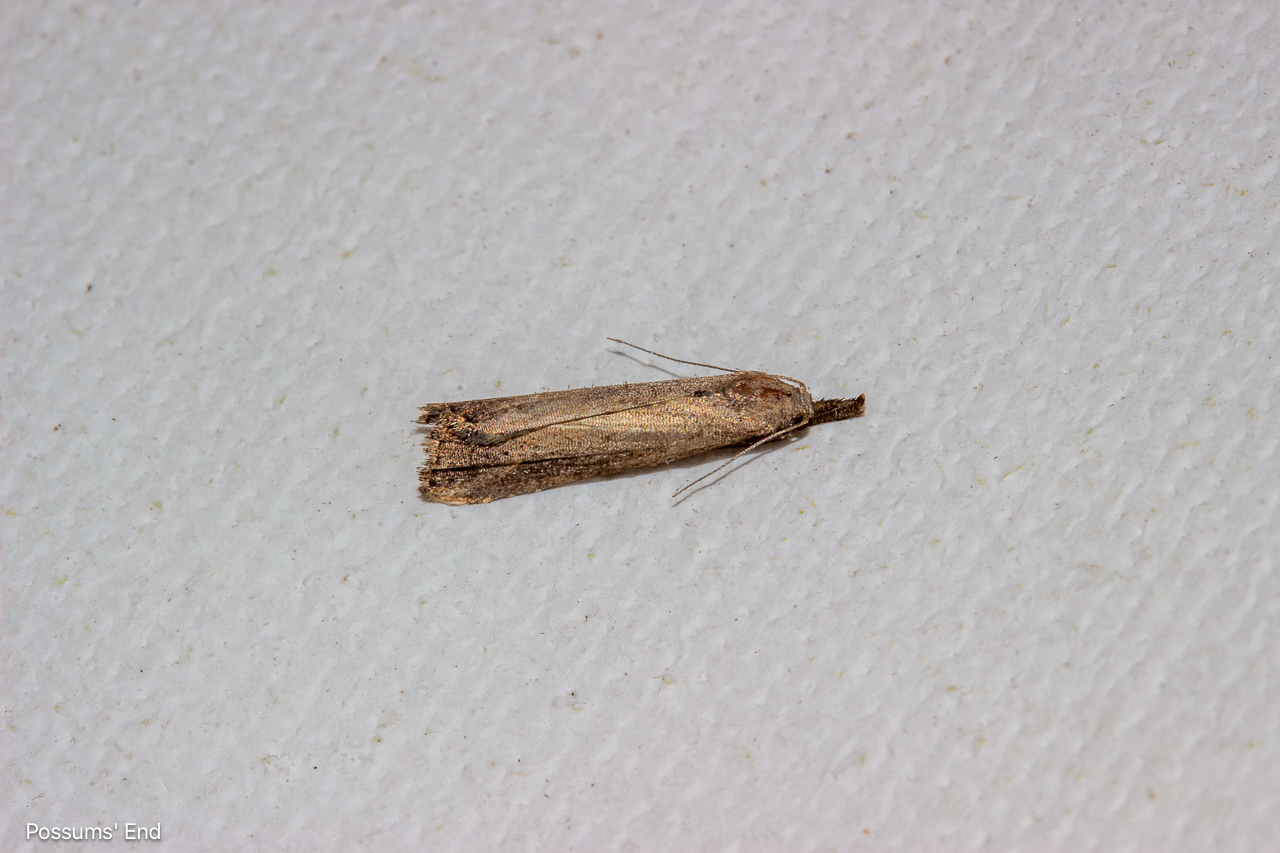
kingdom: Animalia
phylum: Arthropoda
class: Insecta
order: Lepidoptera
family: Erebidae
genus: Schrankia
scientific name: Schrankia costaestrigalis
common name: Pinion-streaked snout
